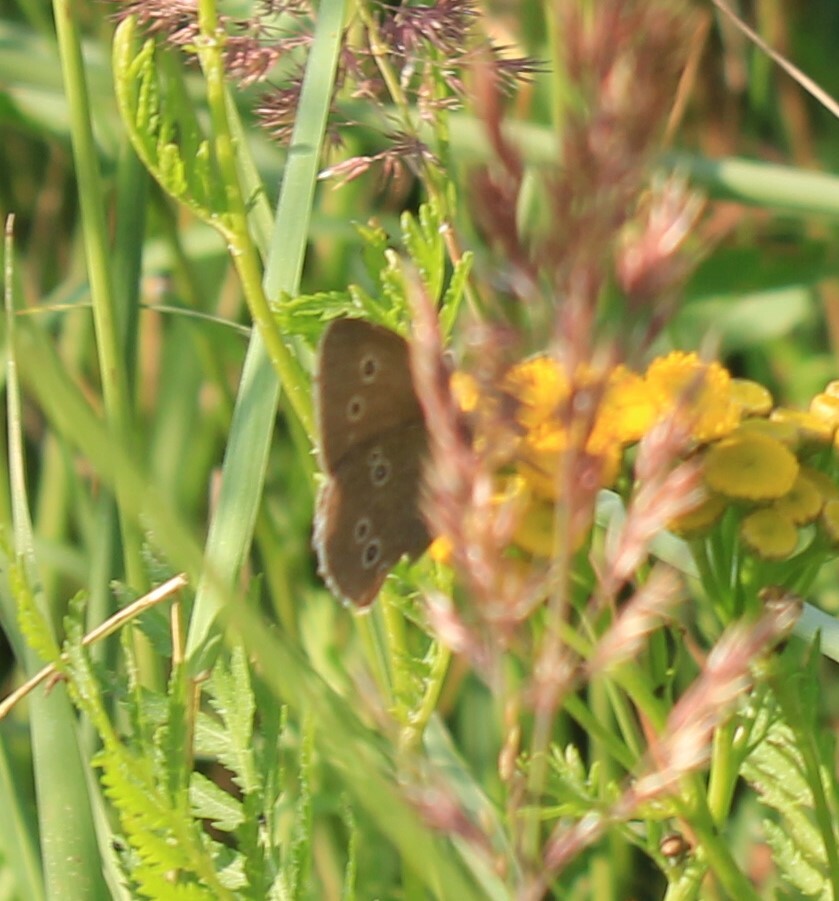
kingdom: Animalia
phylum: Arthropoda
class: Insecta
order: Lepidoptera
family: Nymphalidae
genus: Aphantopus
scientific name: Aphantopus hyperantus
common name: Ringlet
